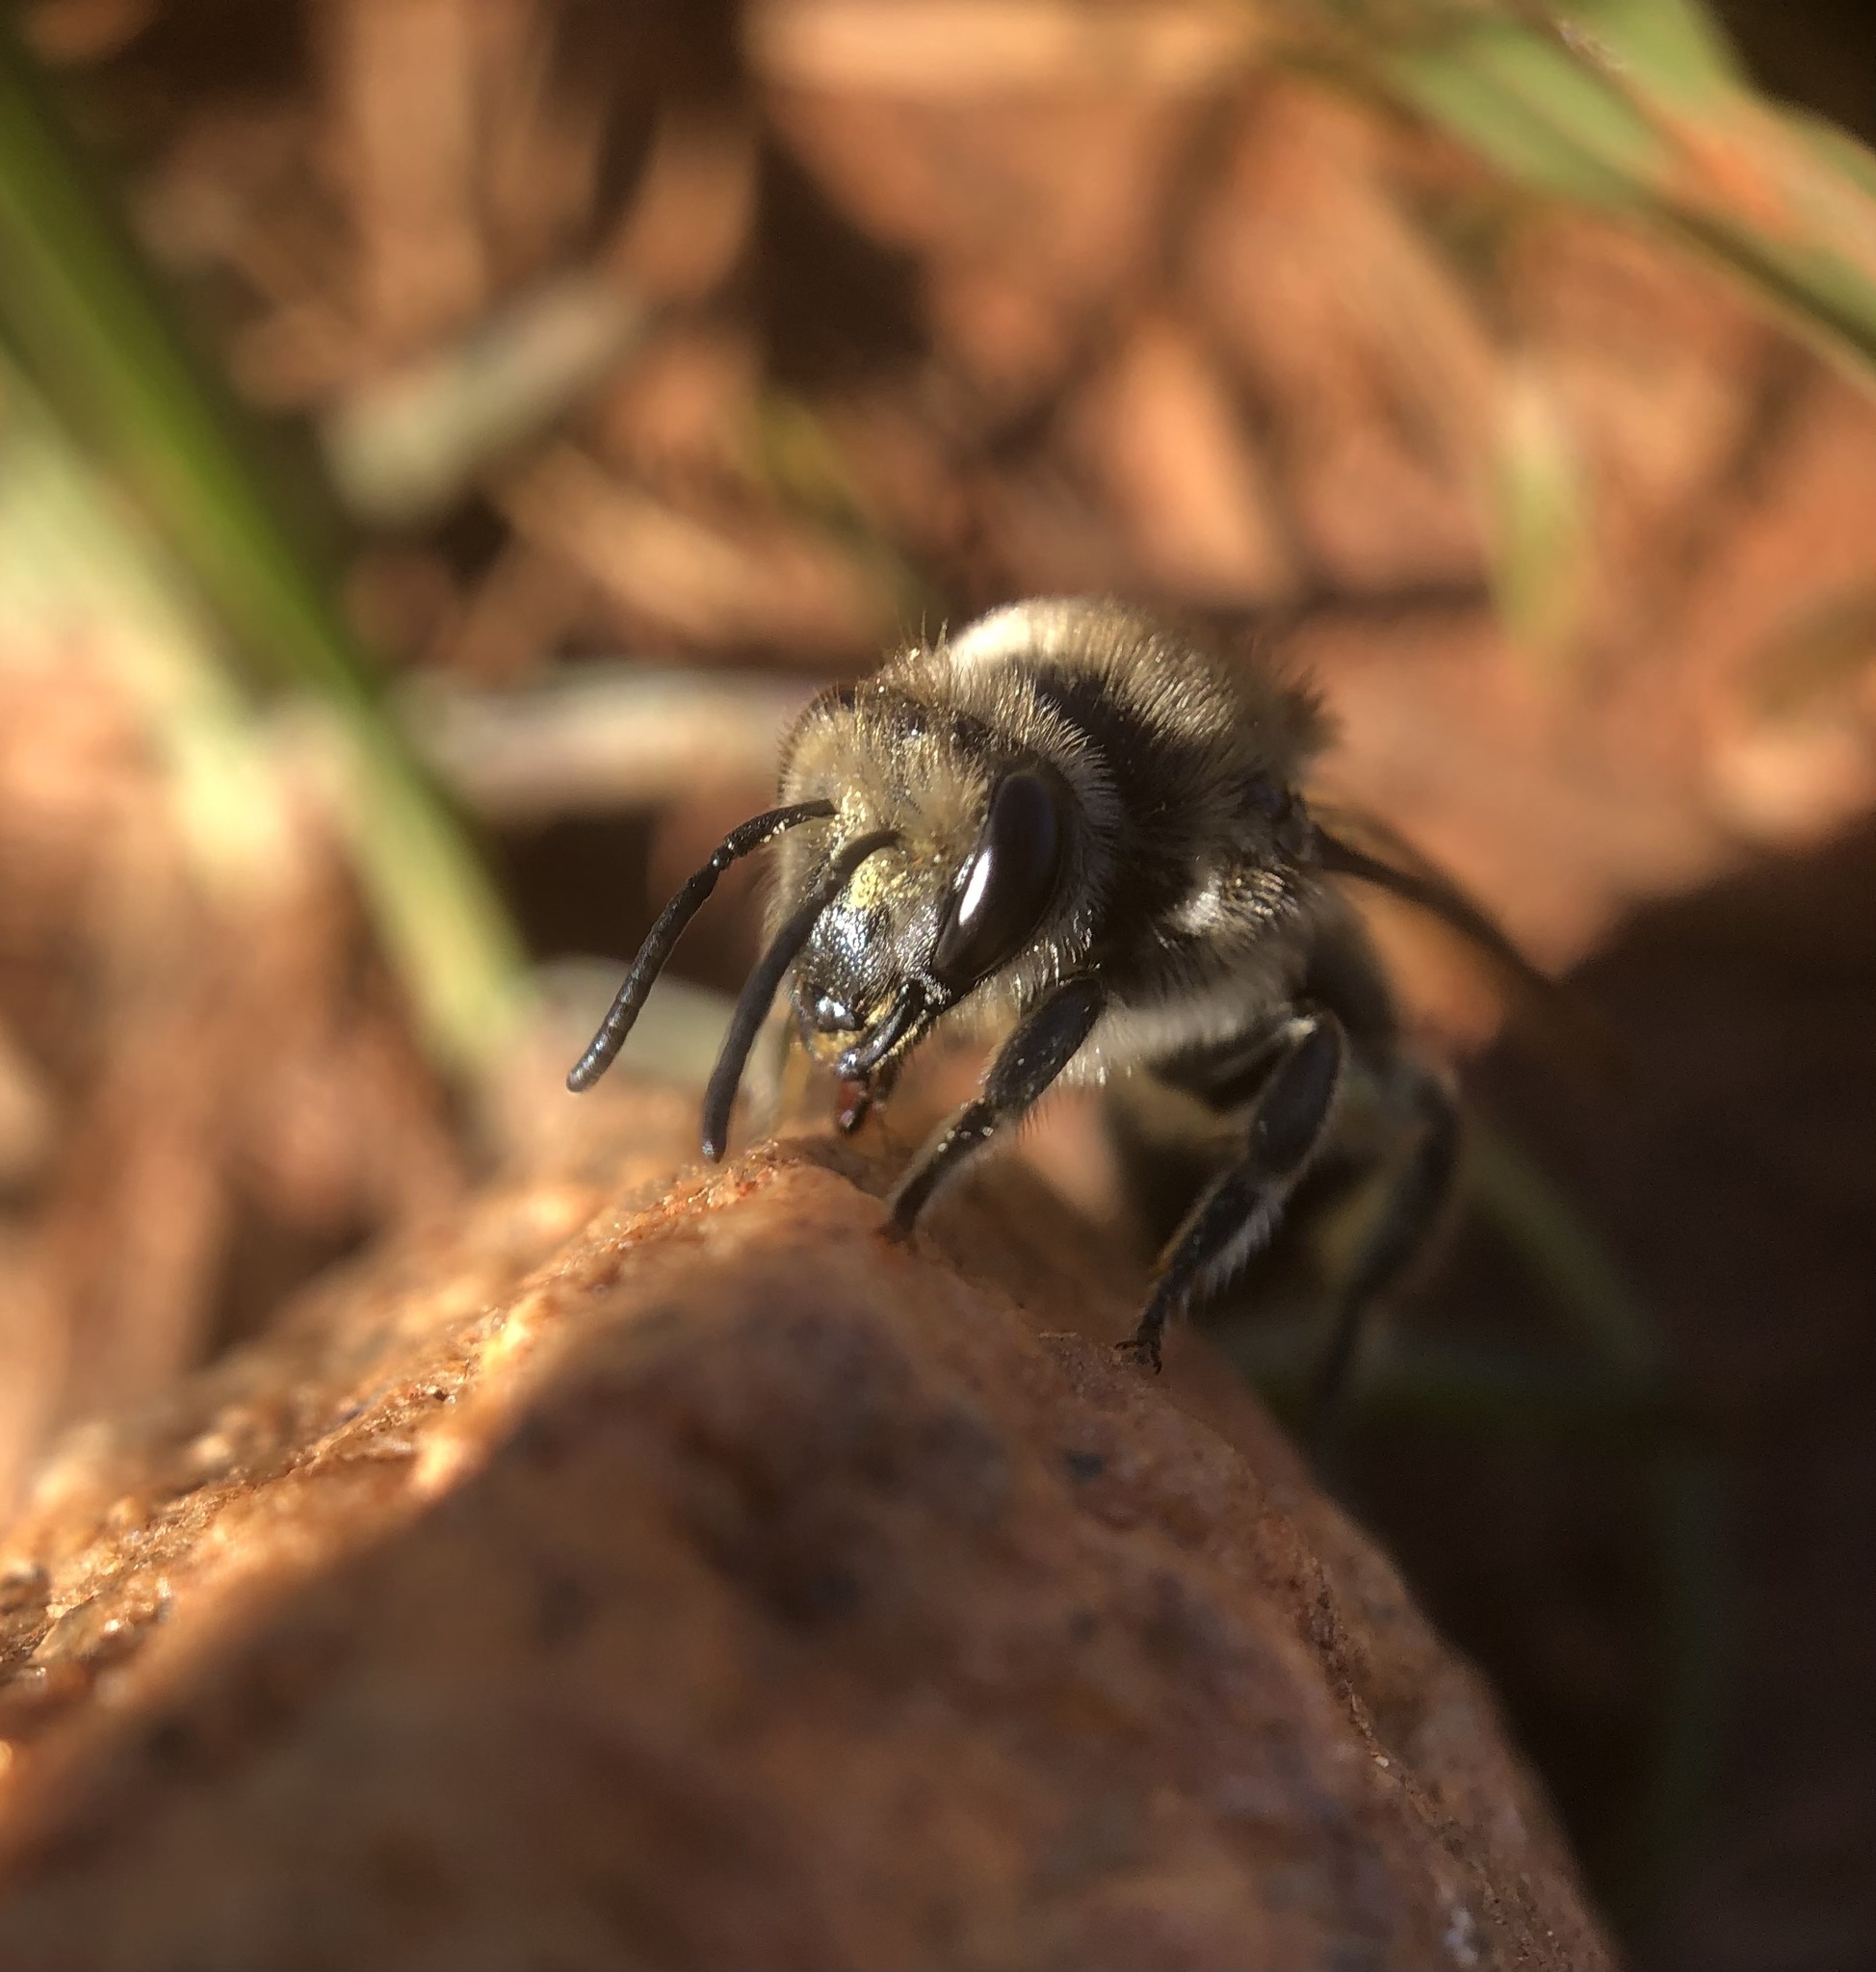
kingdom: Animalia
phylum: Arthropoda
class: Insecta
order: Hymenoptera
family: Colletidae
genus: Colletes
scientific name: Colletes inaequalis
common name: Unequal cellophane bee
